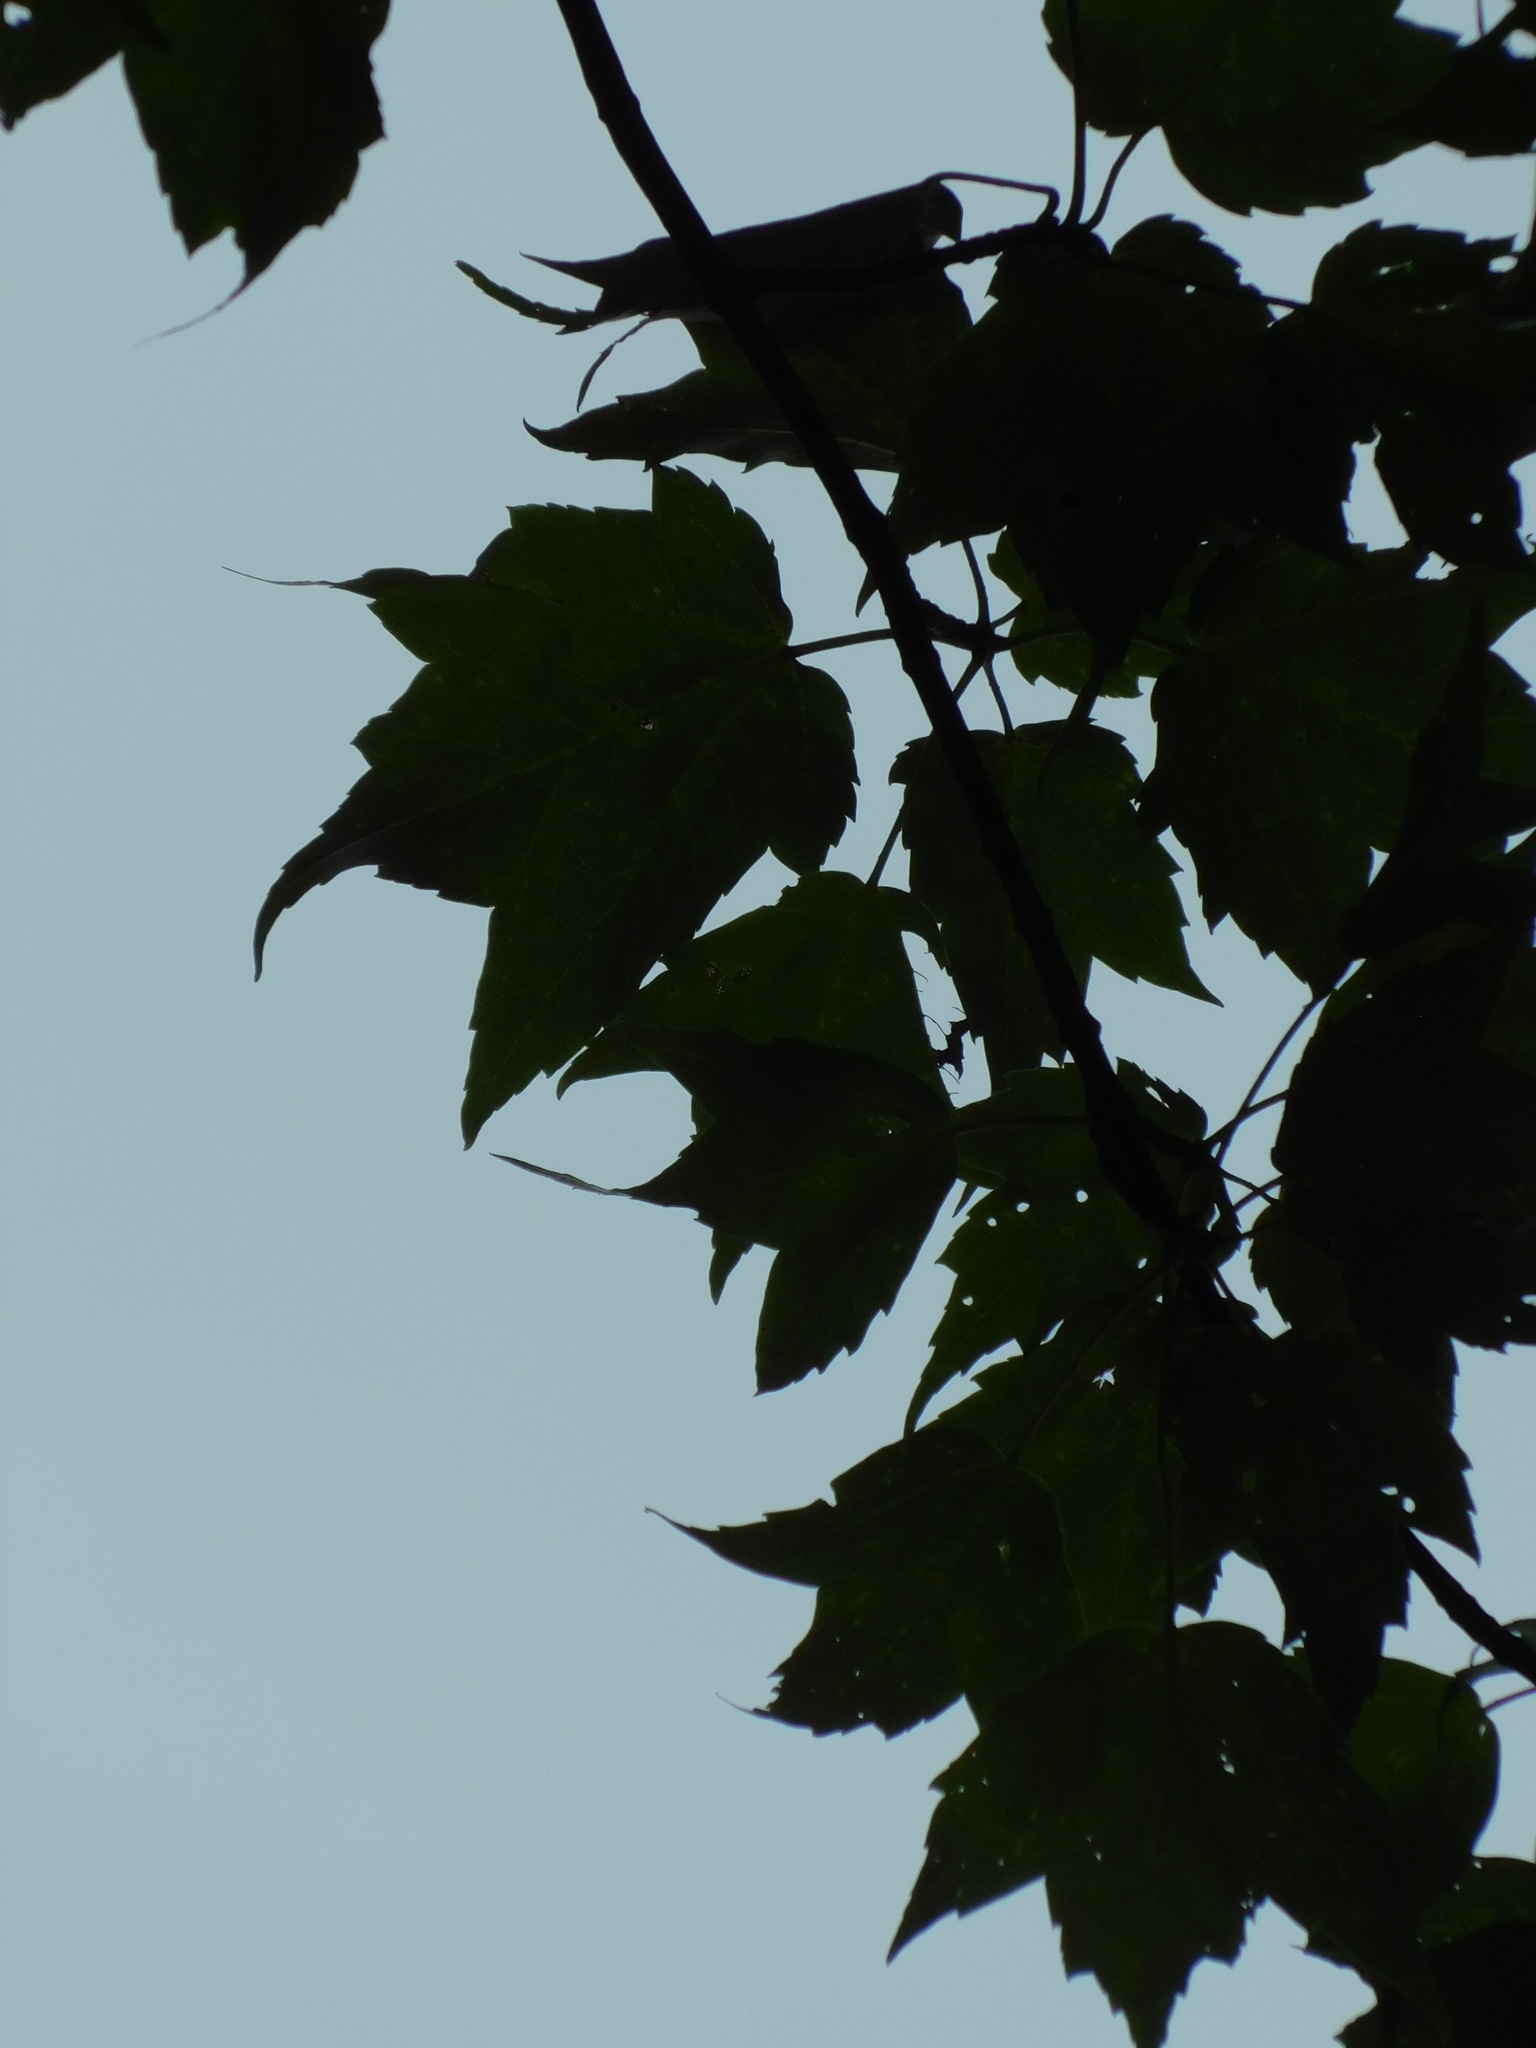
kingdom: Plantae
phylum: Tracheophyta
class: Magnoliopsida
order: Sapindales
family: Sapindaceae
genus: Acer
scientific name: Acer freemanii
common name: Freeman maple
